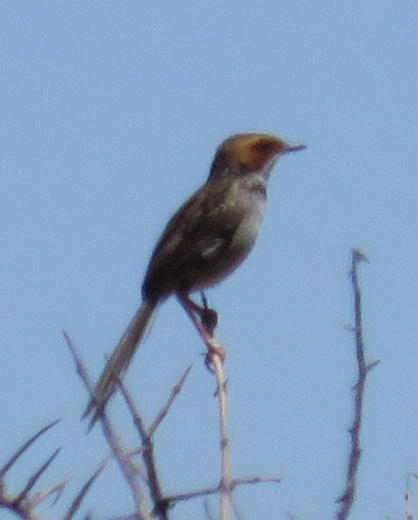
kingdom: Animalia
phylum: Chordata
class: Aves
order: Passeriformes
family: Cisticolidae
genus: Malcorus
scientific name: Malcorus pectoralis
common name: Rufous-eared warbler
